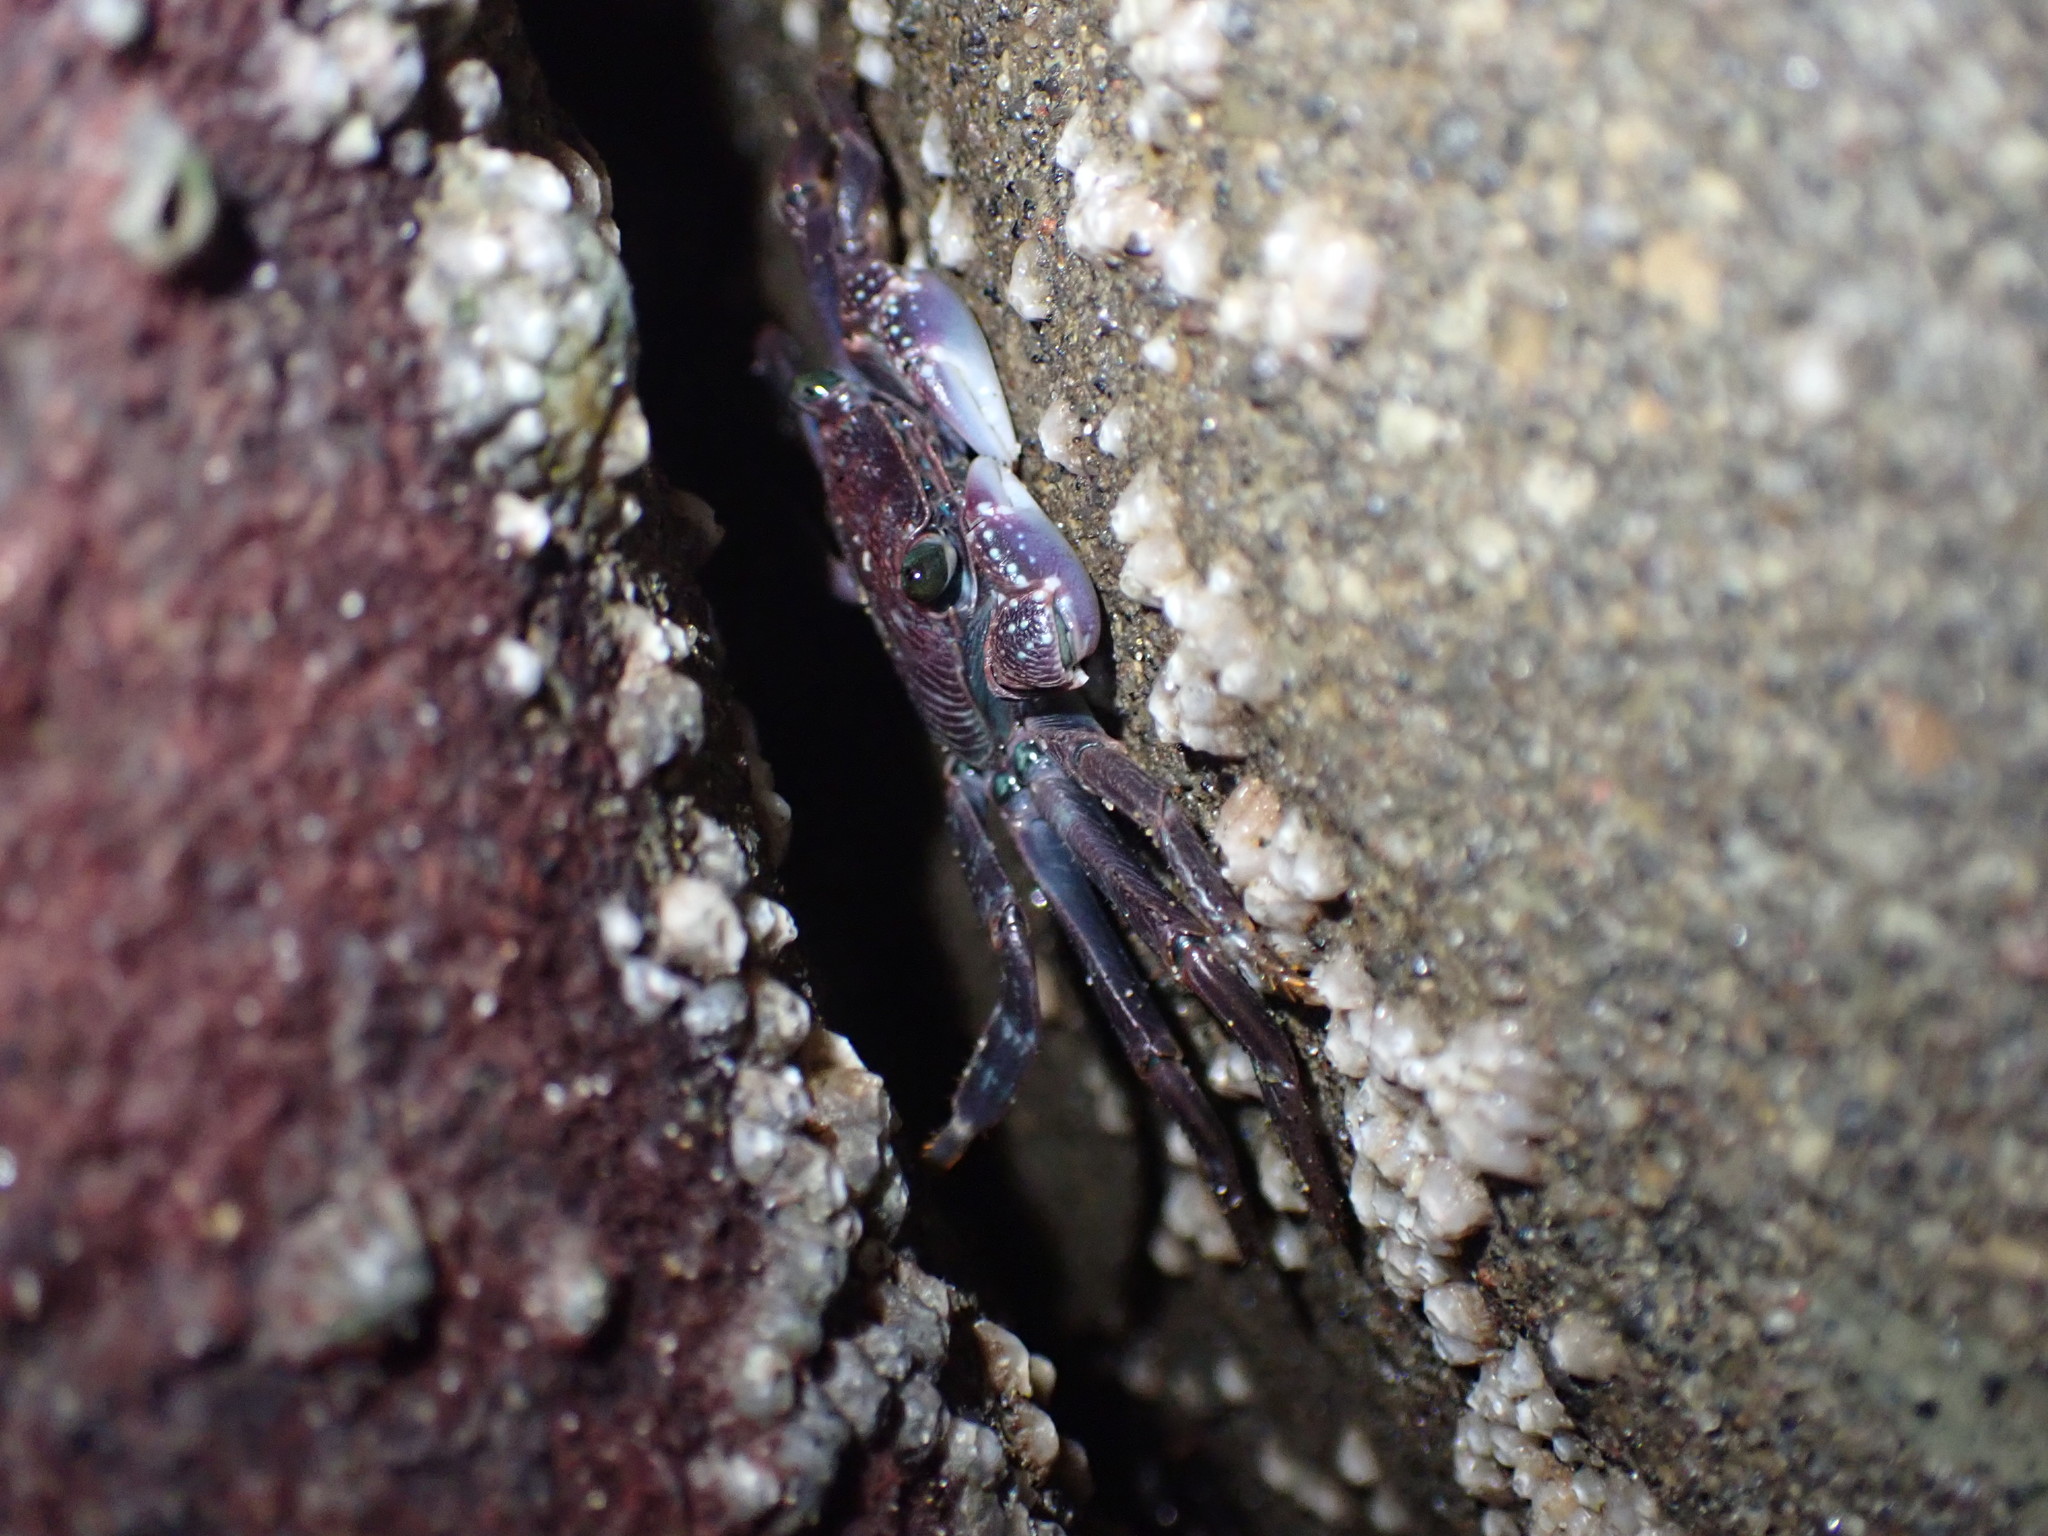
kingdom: Animalia
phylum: Arthropoda
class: Malacostraca
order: Decapoda
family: Grapsidae
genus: Leptograpsus
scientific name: Leptograpsus variegatus
